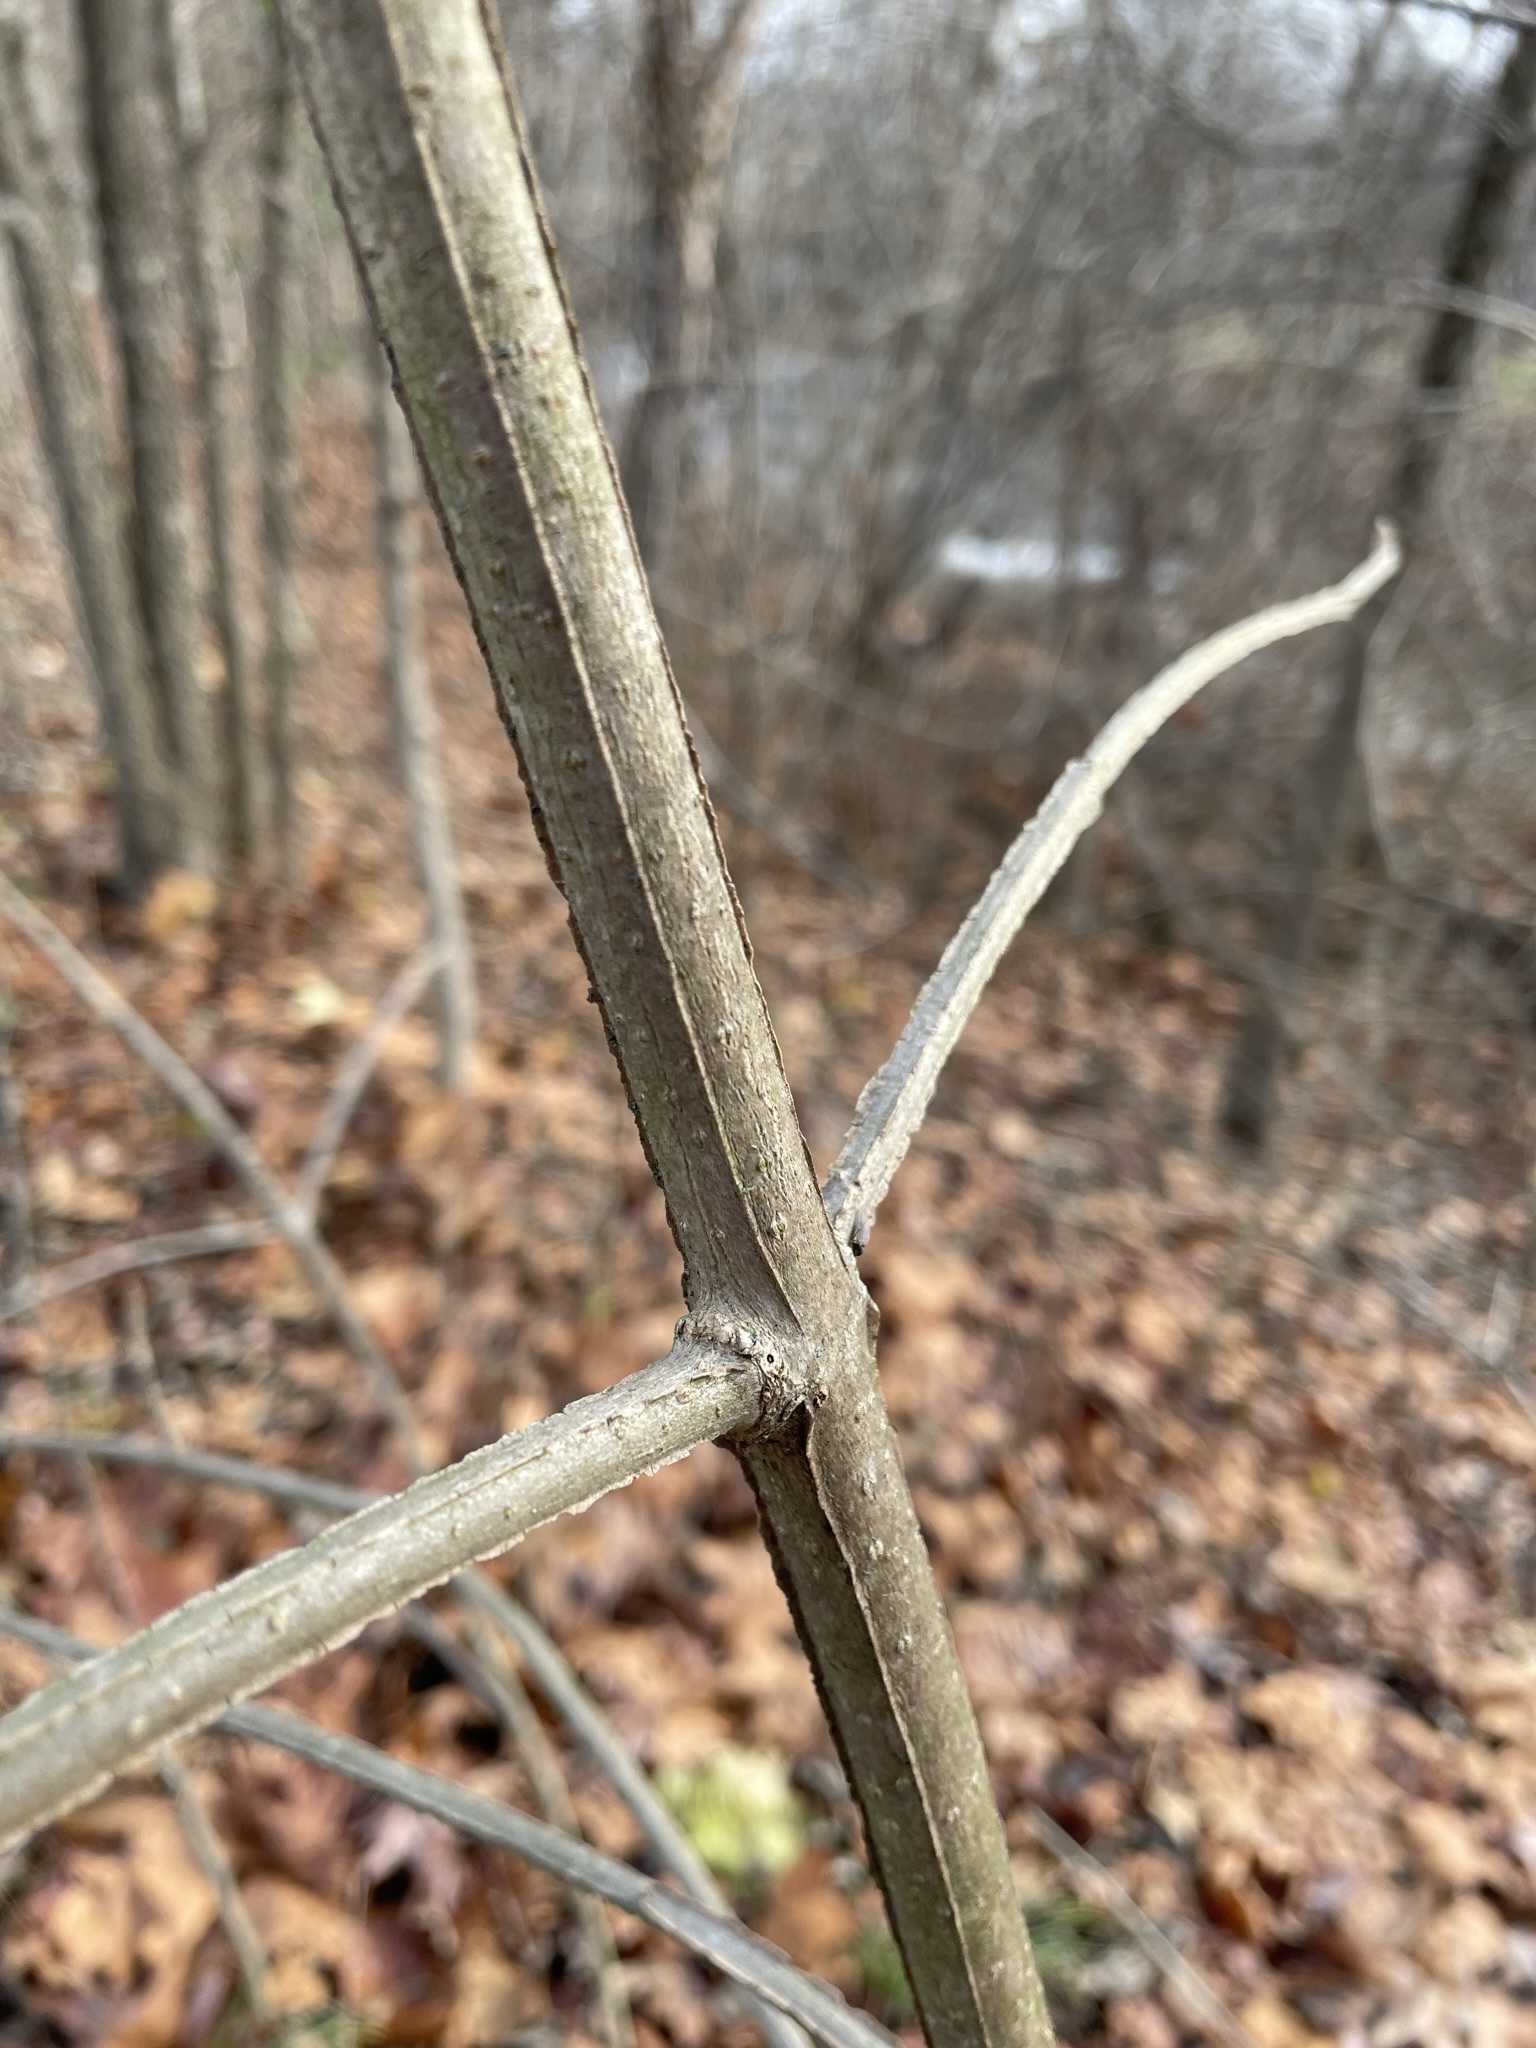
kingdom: Plantae
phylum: Tracheophyta
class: Magnoliopsida
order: Lamiales
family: Oleaceae
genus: Fraxinus
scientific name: Fraxinus quadrangulata
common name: Blue ash
